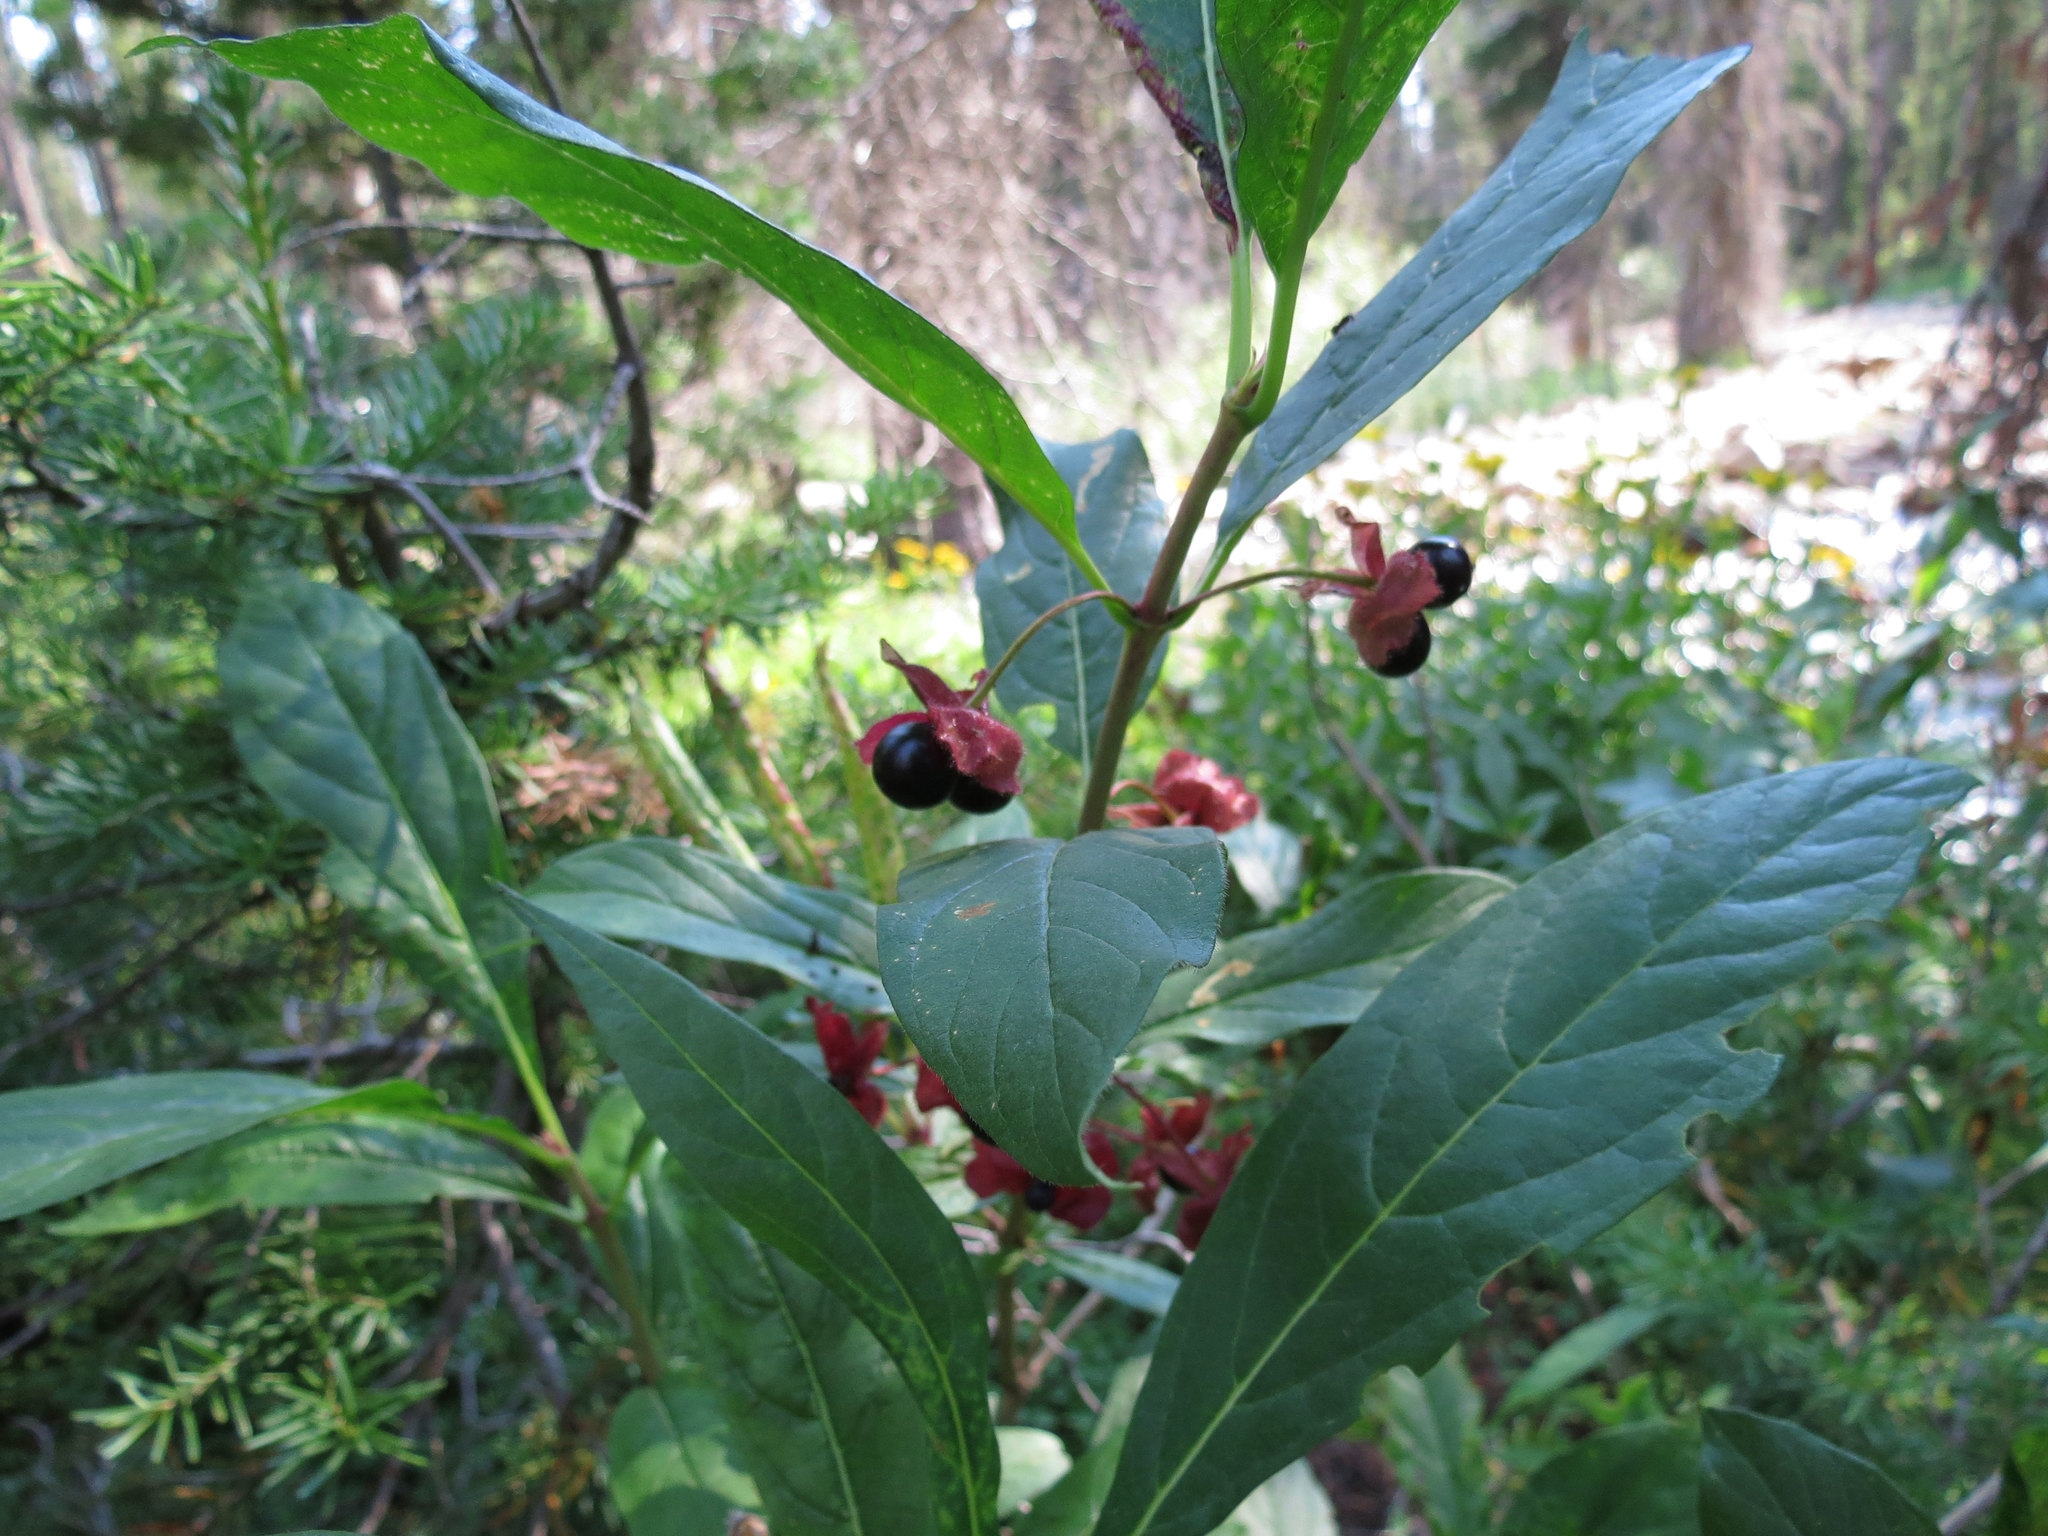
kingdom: Plantae
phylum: Tracheophyta
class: Magnoliopsida
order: Dipsacales
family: Caprifoliaceae
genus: Lonicera
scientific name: Lonicera involucrata
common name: Californian honeysuckle
